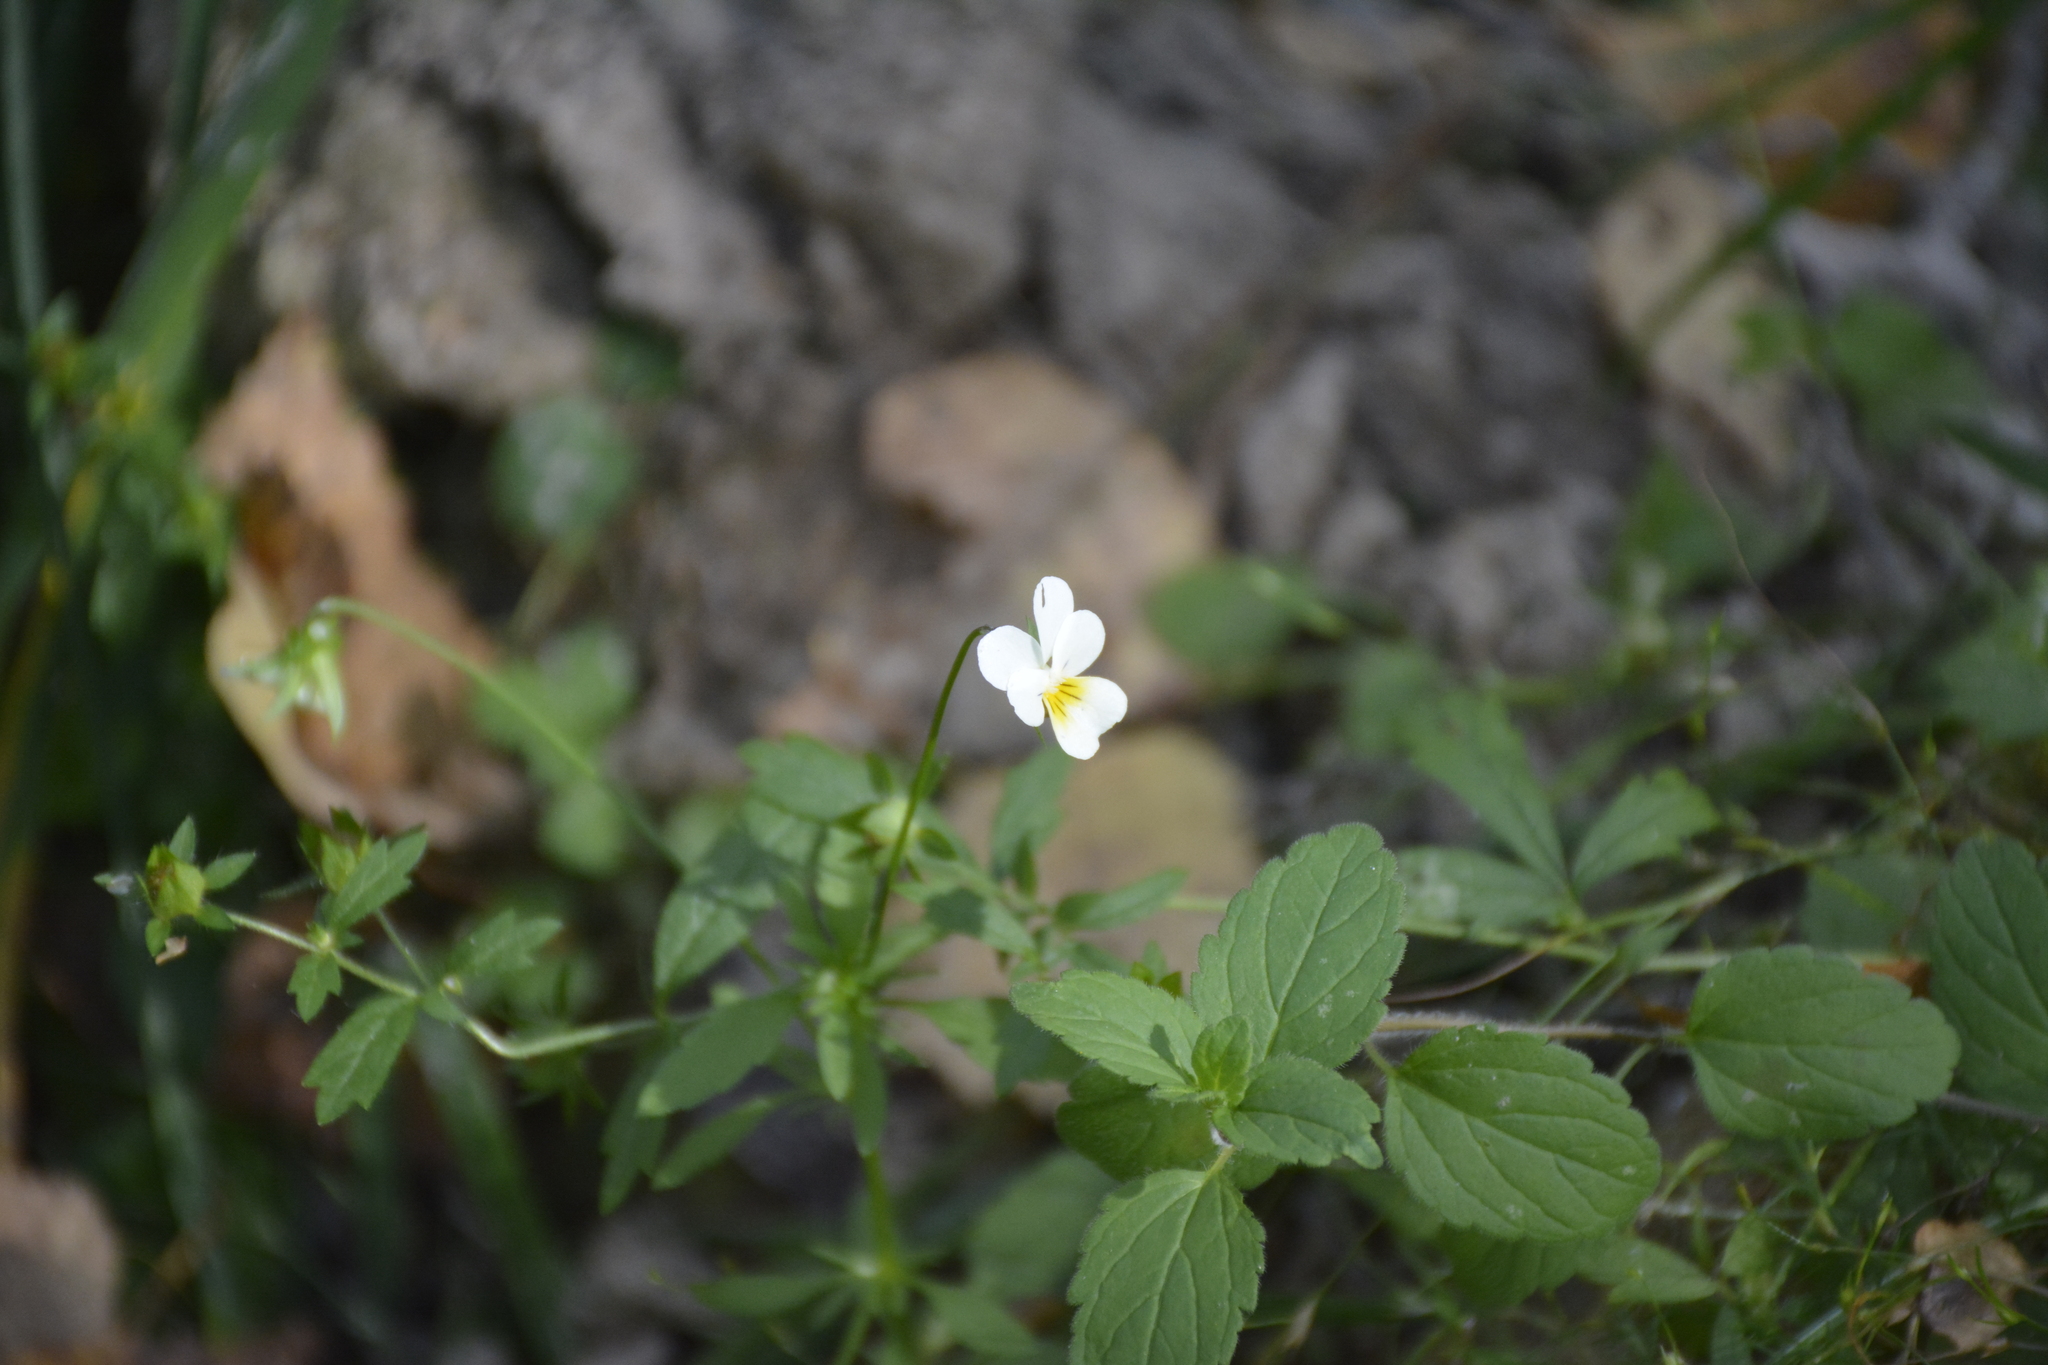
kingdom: Plantae
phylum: Tracheophyta
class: Magnoliopsida
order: Malpighiales
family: Violaceae
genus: Viola
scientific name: Viola arvensis
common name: Field pansy
